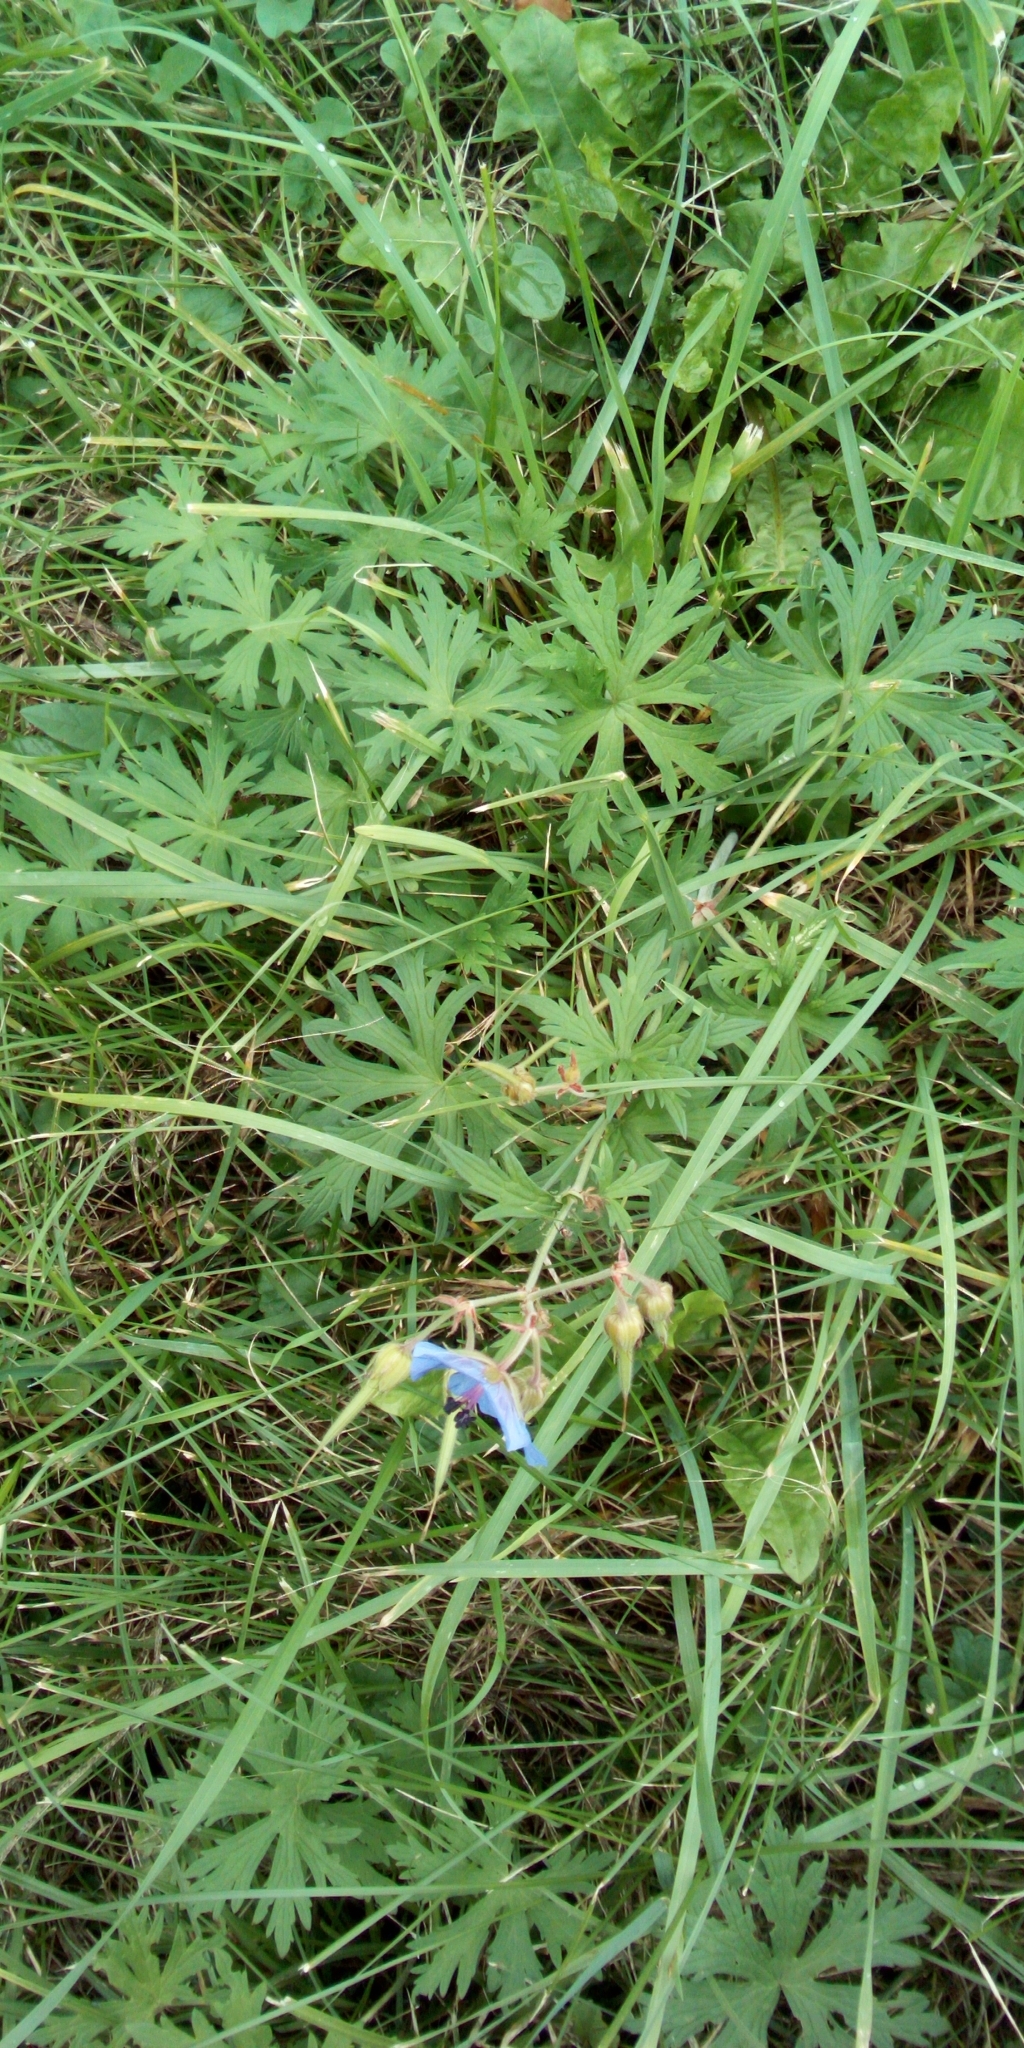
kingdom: Plantae
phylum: Tracheophyta
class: Magnoliopsida
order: Geraniales
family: Geraniaceae
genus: Geranium
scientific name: Geranium pratense
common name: Meadow crane's-bill
